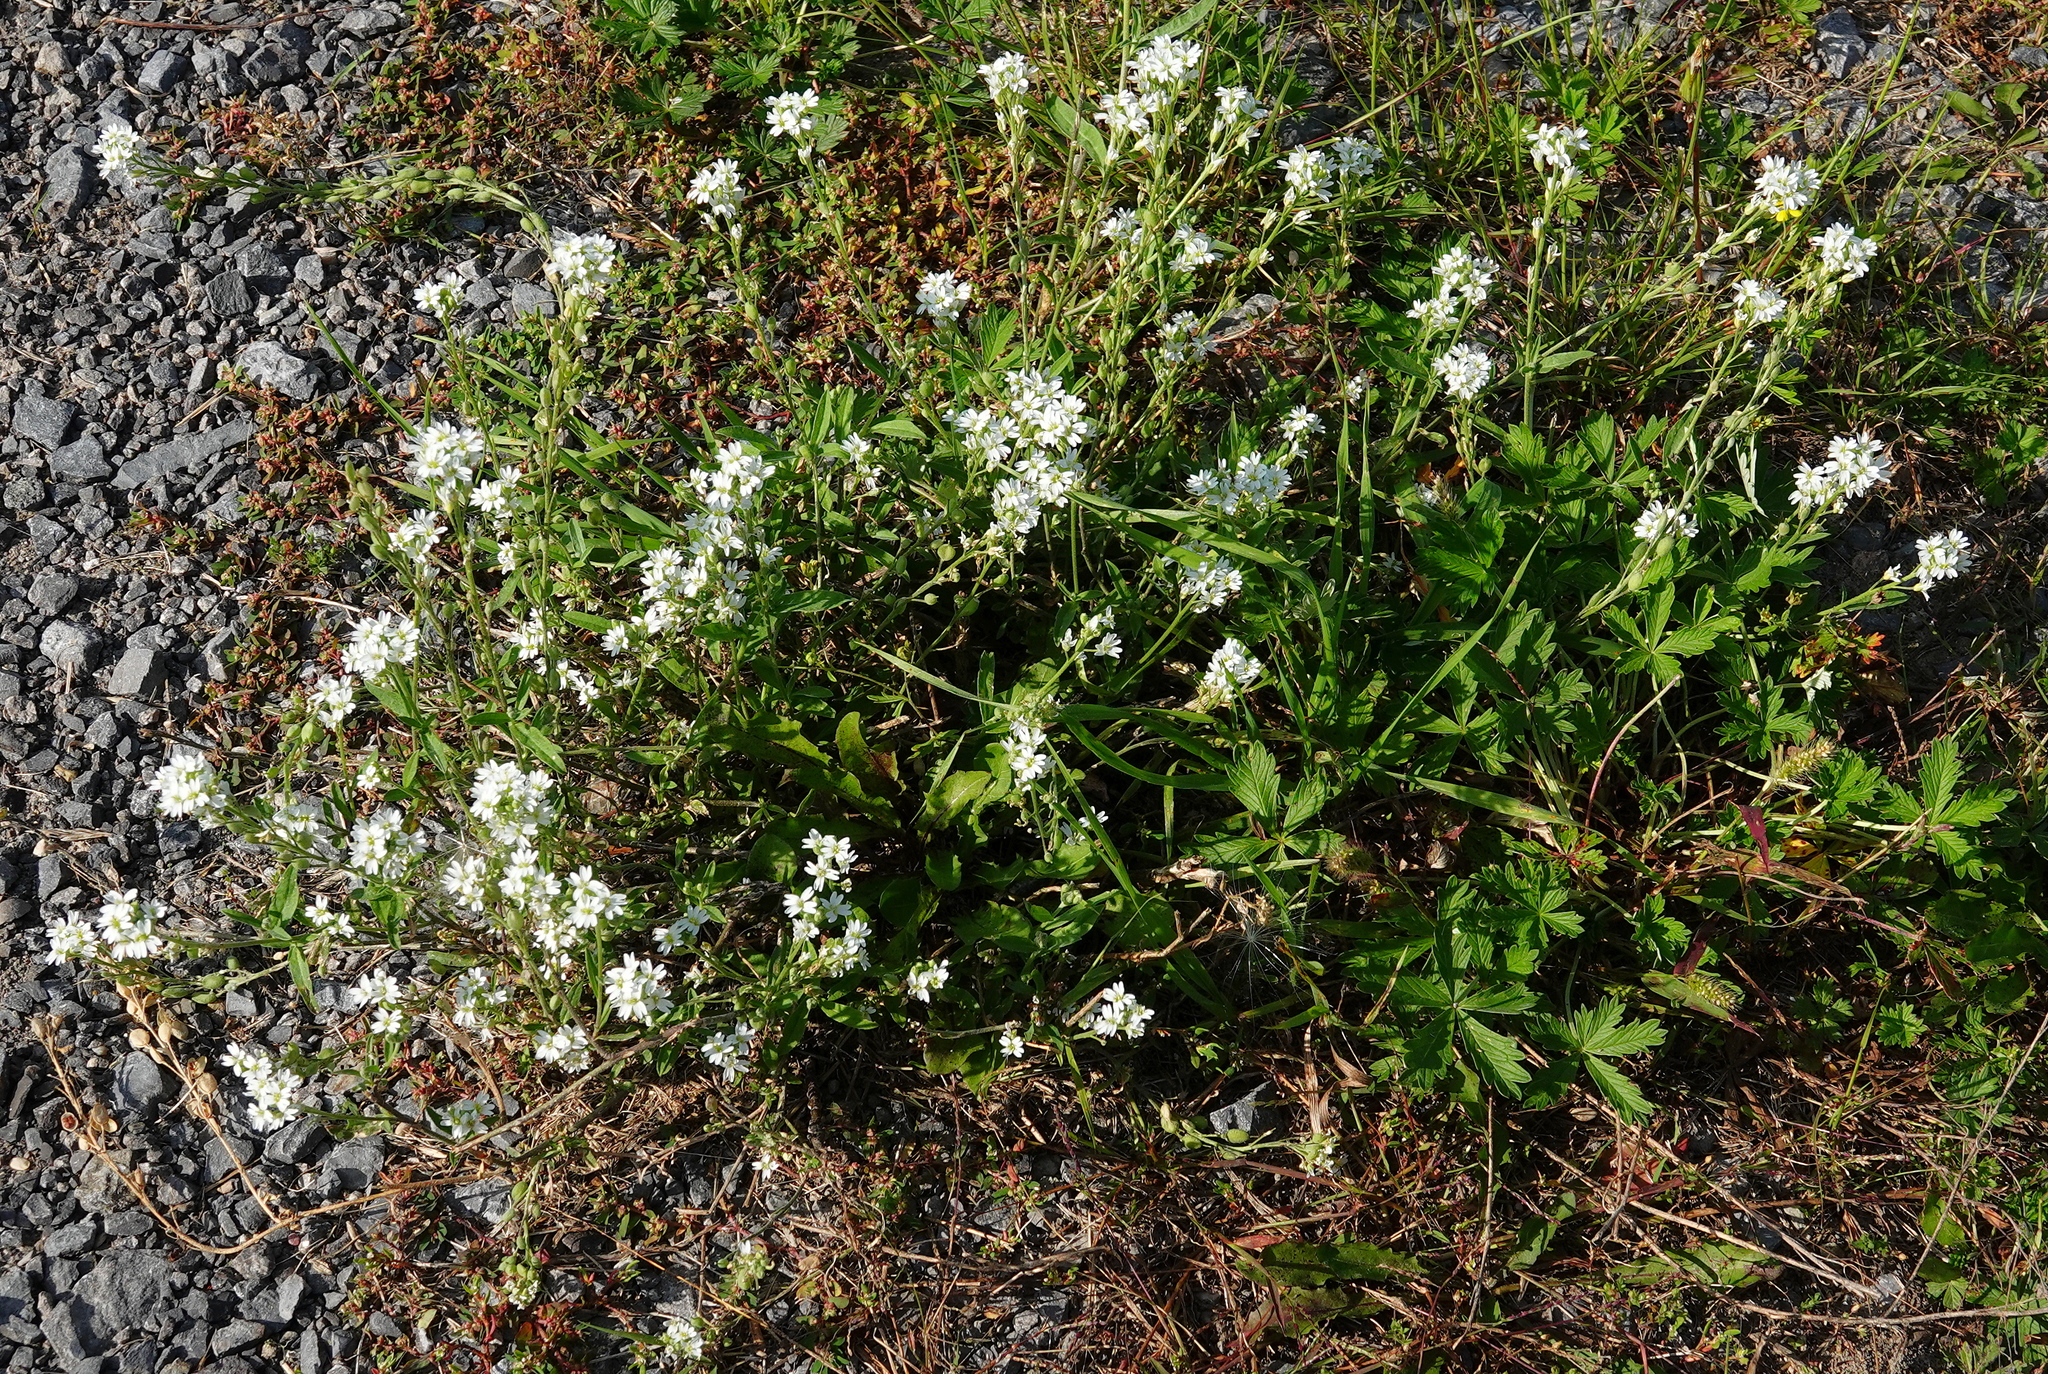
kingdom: Plantae
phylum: Tracheophyta
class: Magnoliopsida
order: Brassicales
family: Brassicaceae
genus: Berteroa
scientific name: Berteroa incana
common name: Hoary alison
